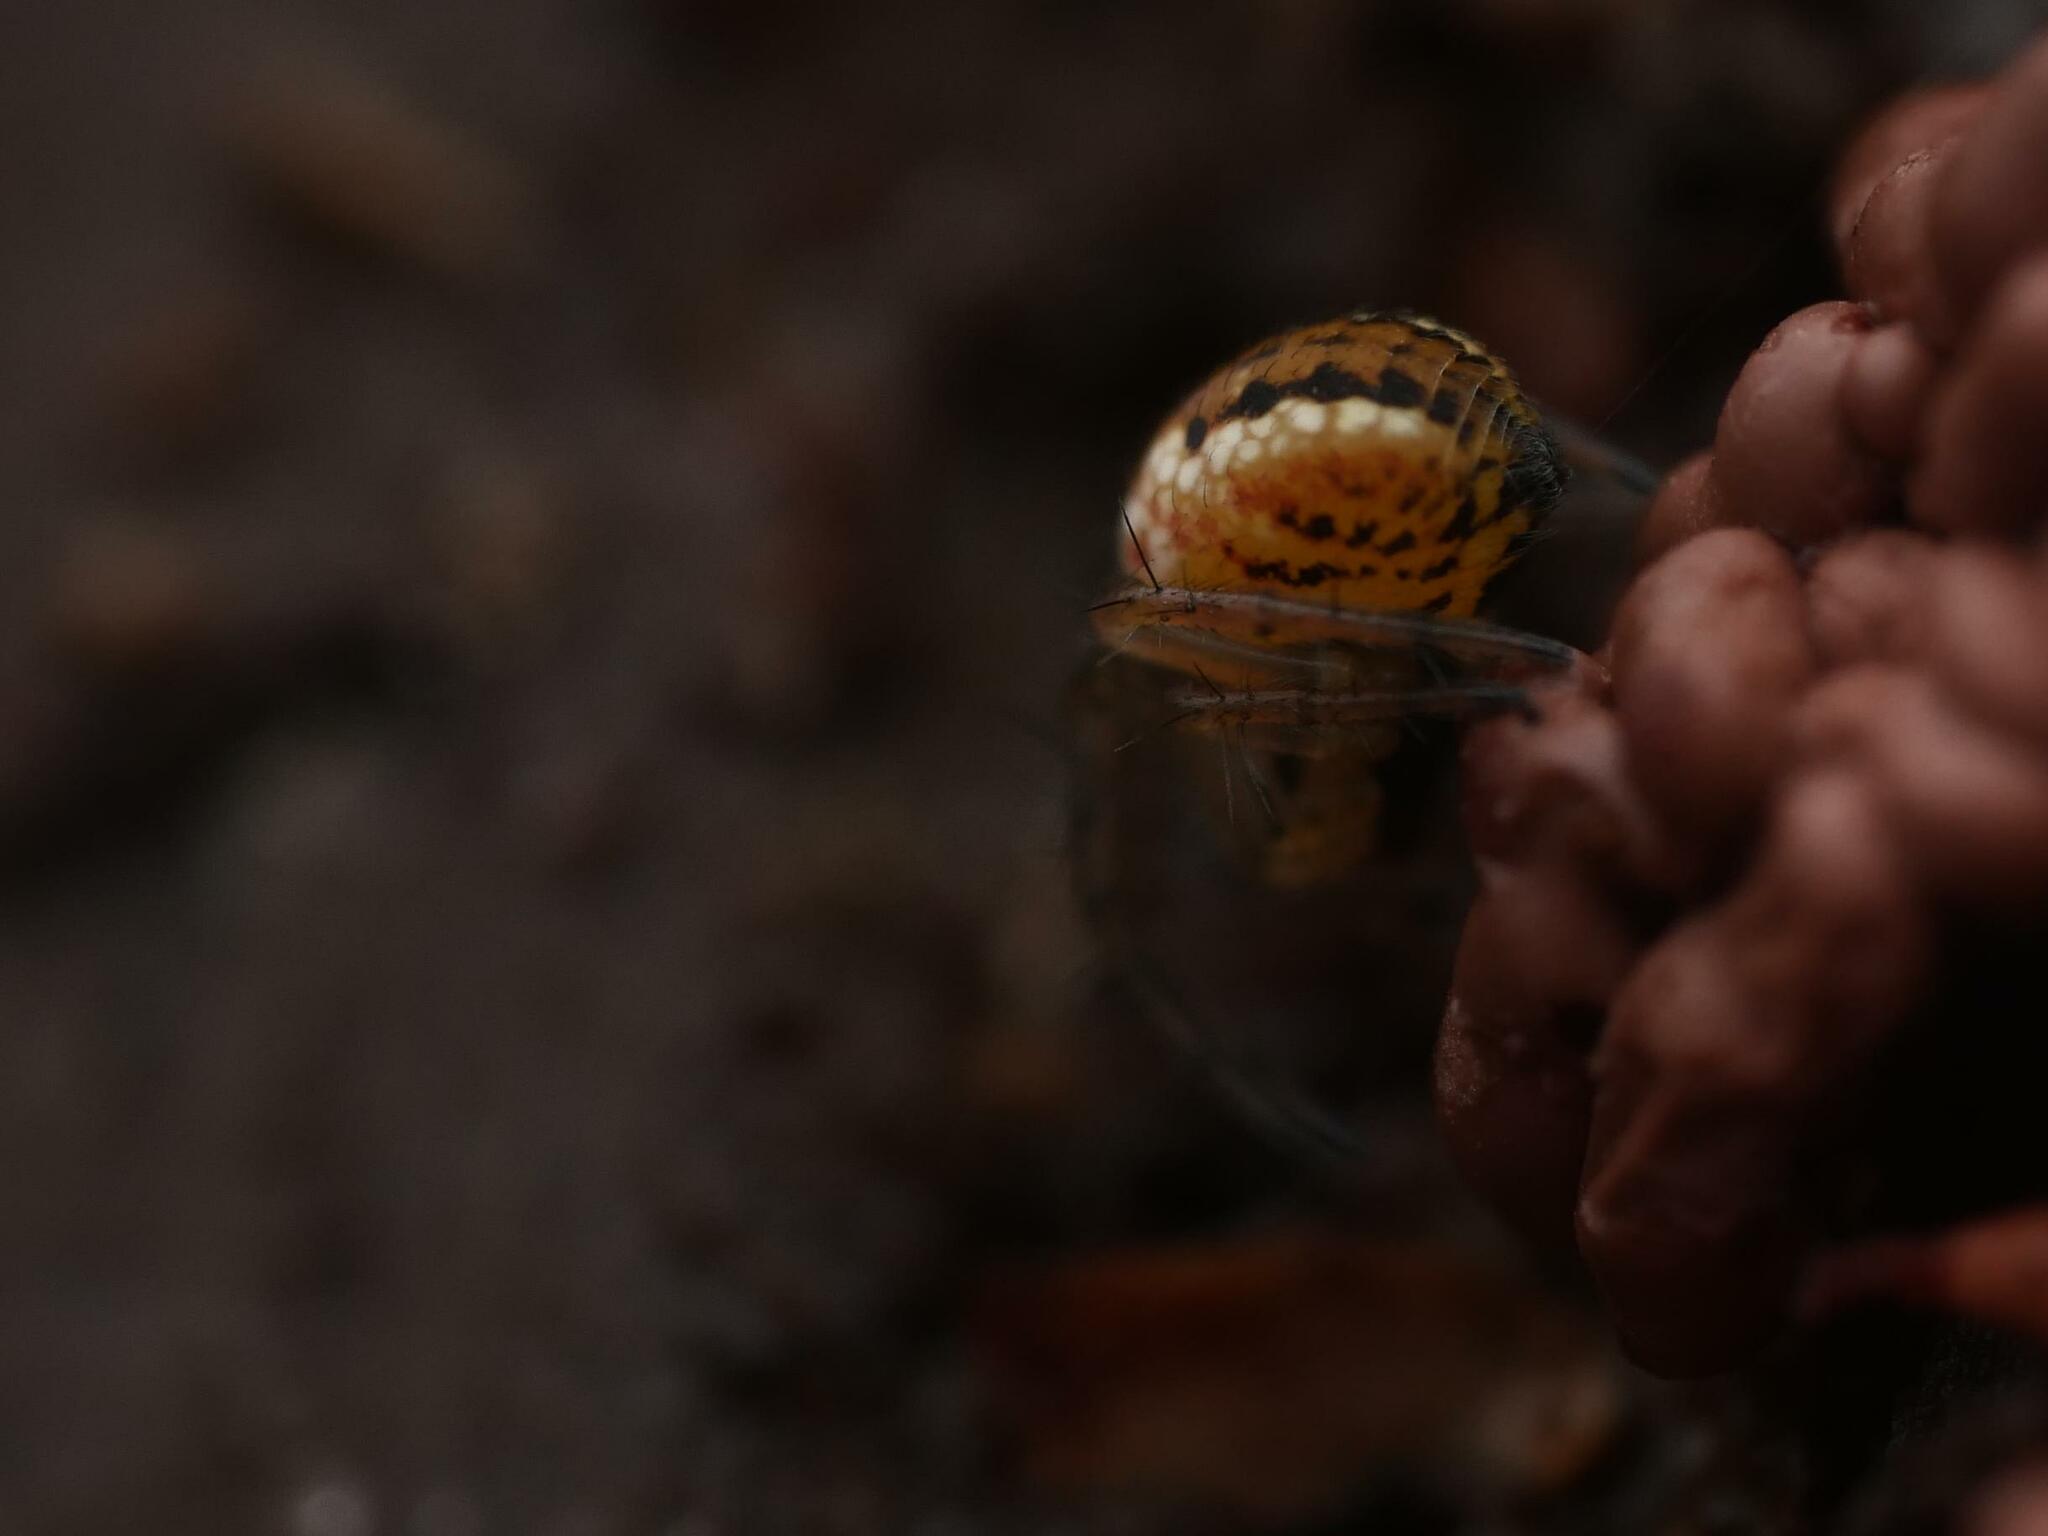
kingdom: Animalia
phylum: Arthropoda
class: Arachnida
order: Araneae
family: Araneidae
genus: Mangora
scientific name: Mangora acalypha
